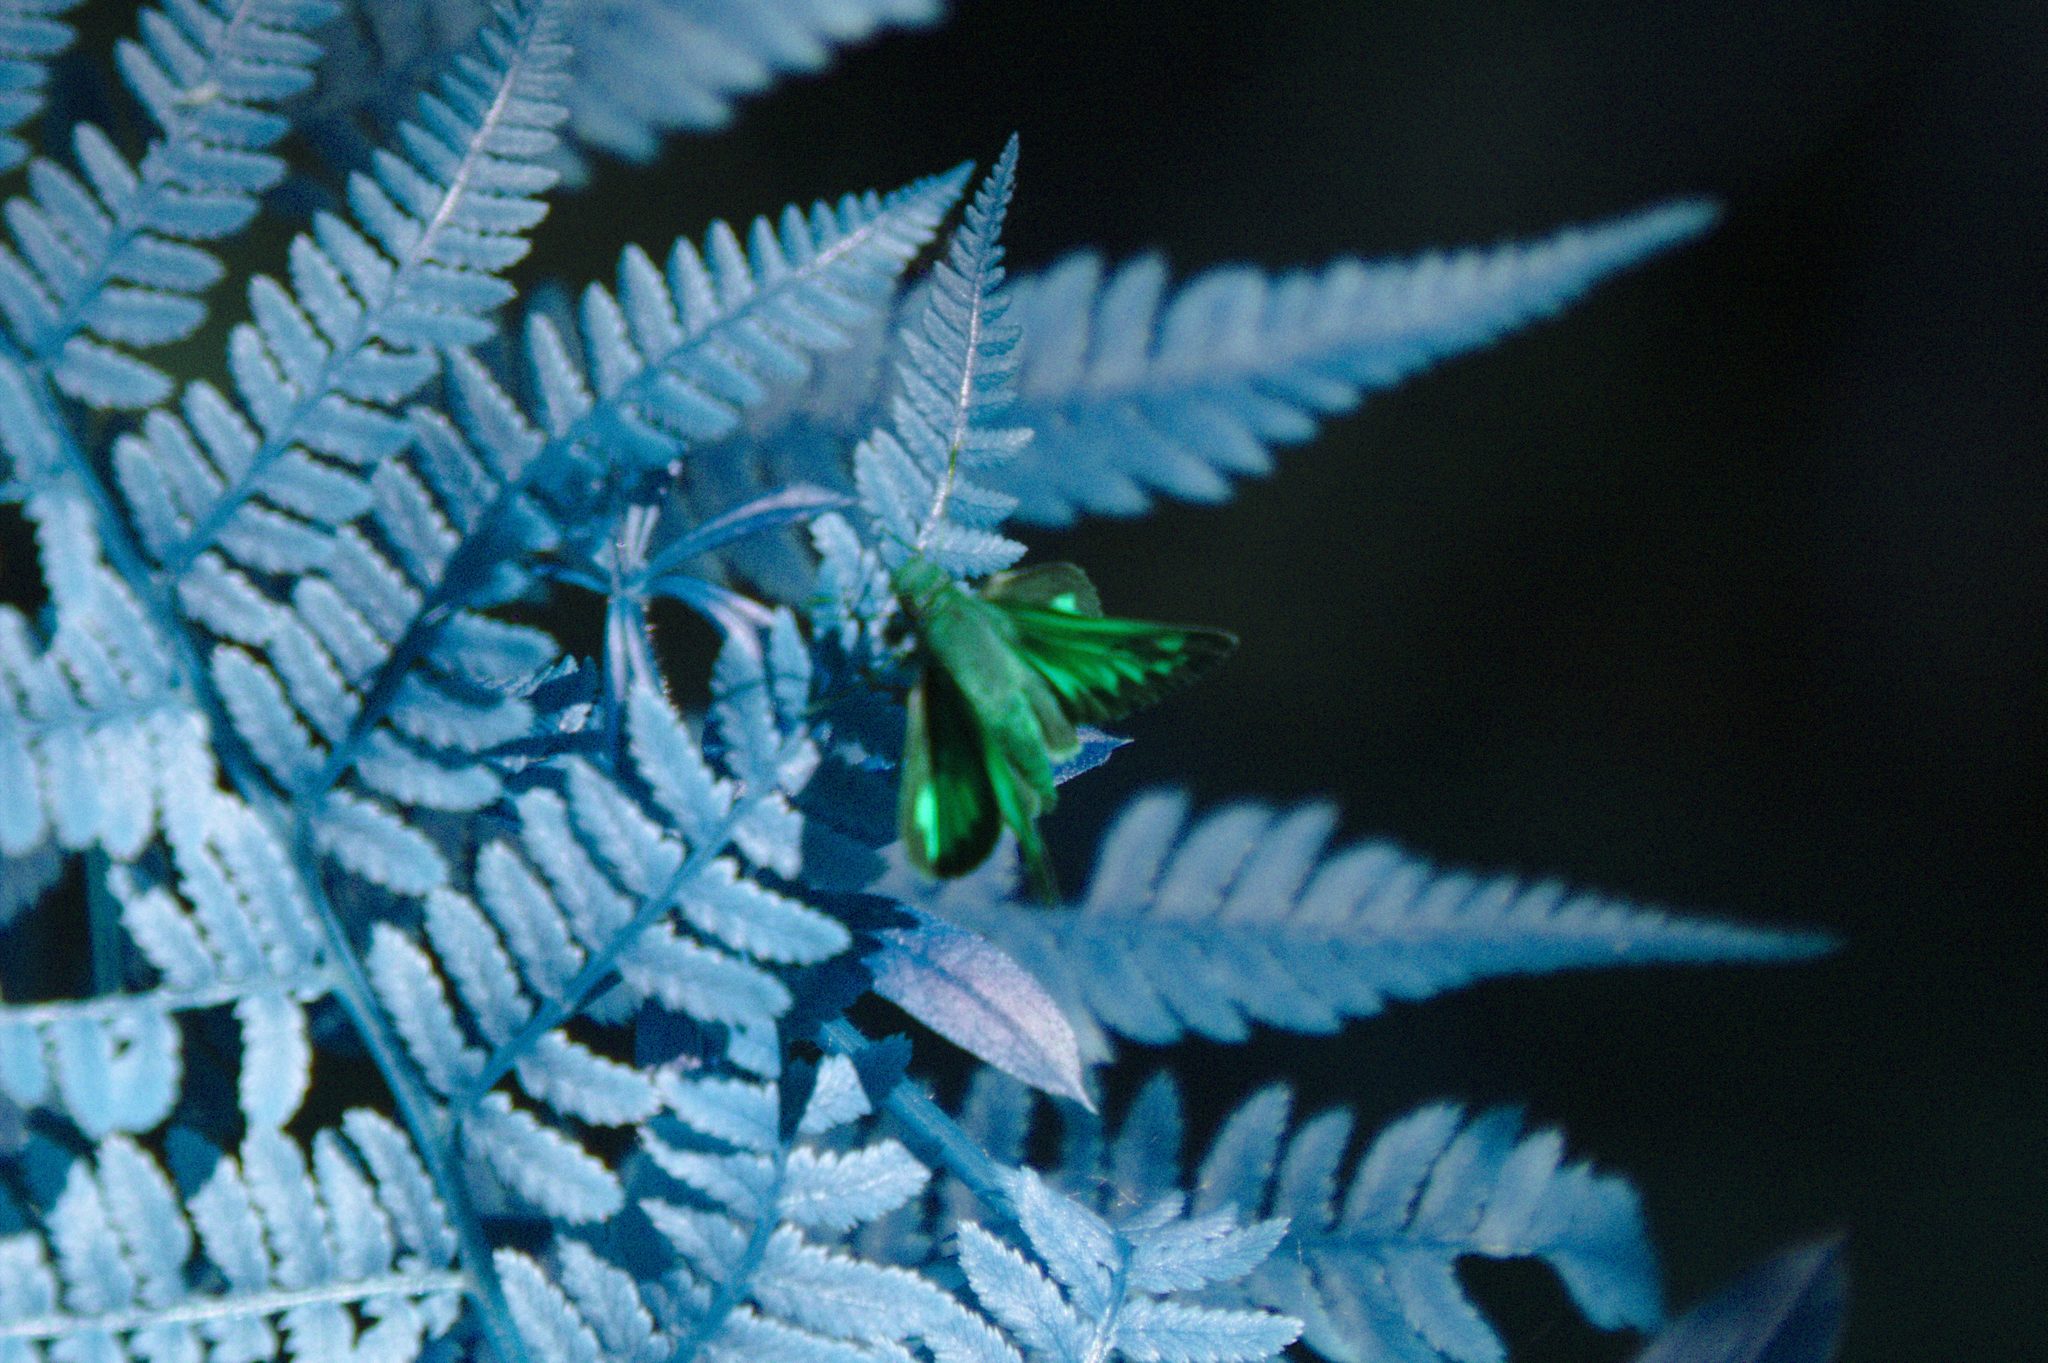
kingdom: Animalia
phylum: Arthropoda
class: Insecta
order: Lepidoptera
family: Hesperiidae
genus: Lon
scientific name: Lon hobomok
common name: Hobomok skipper
